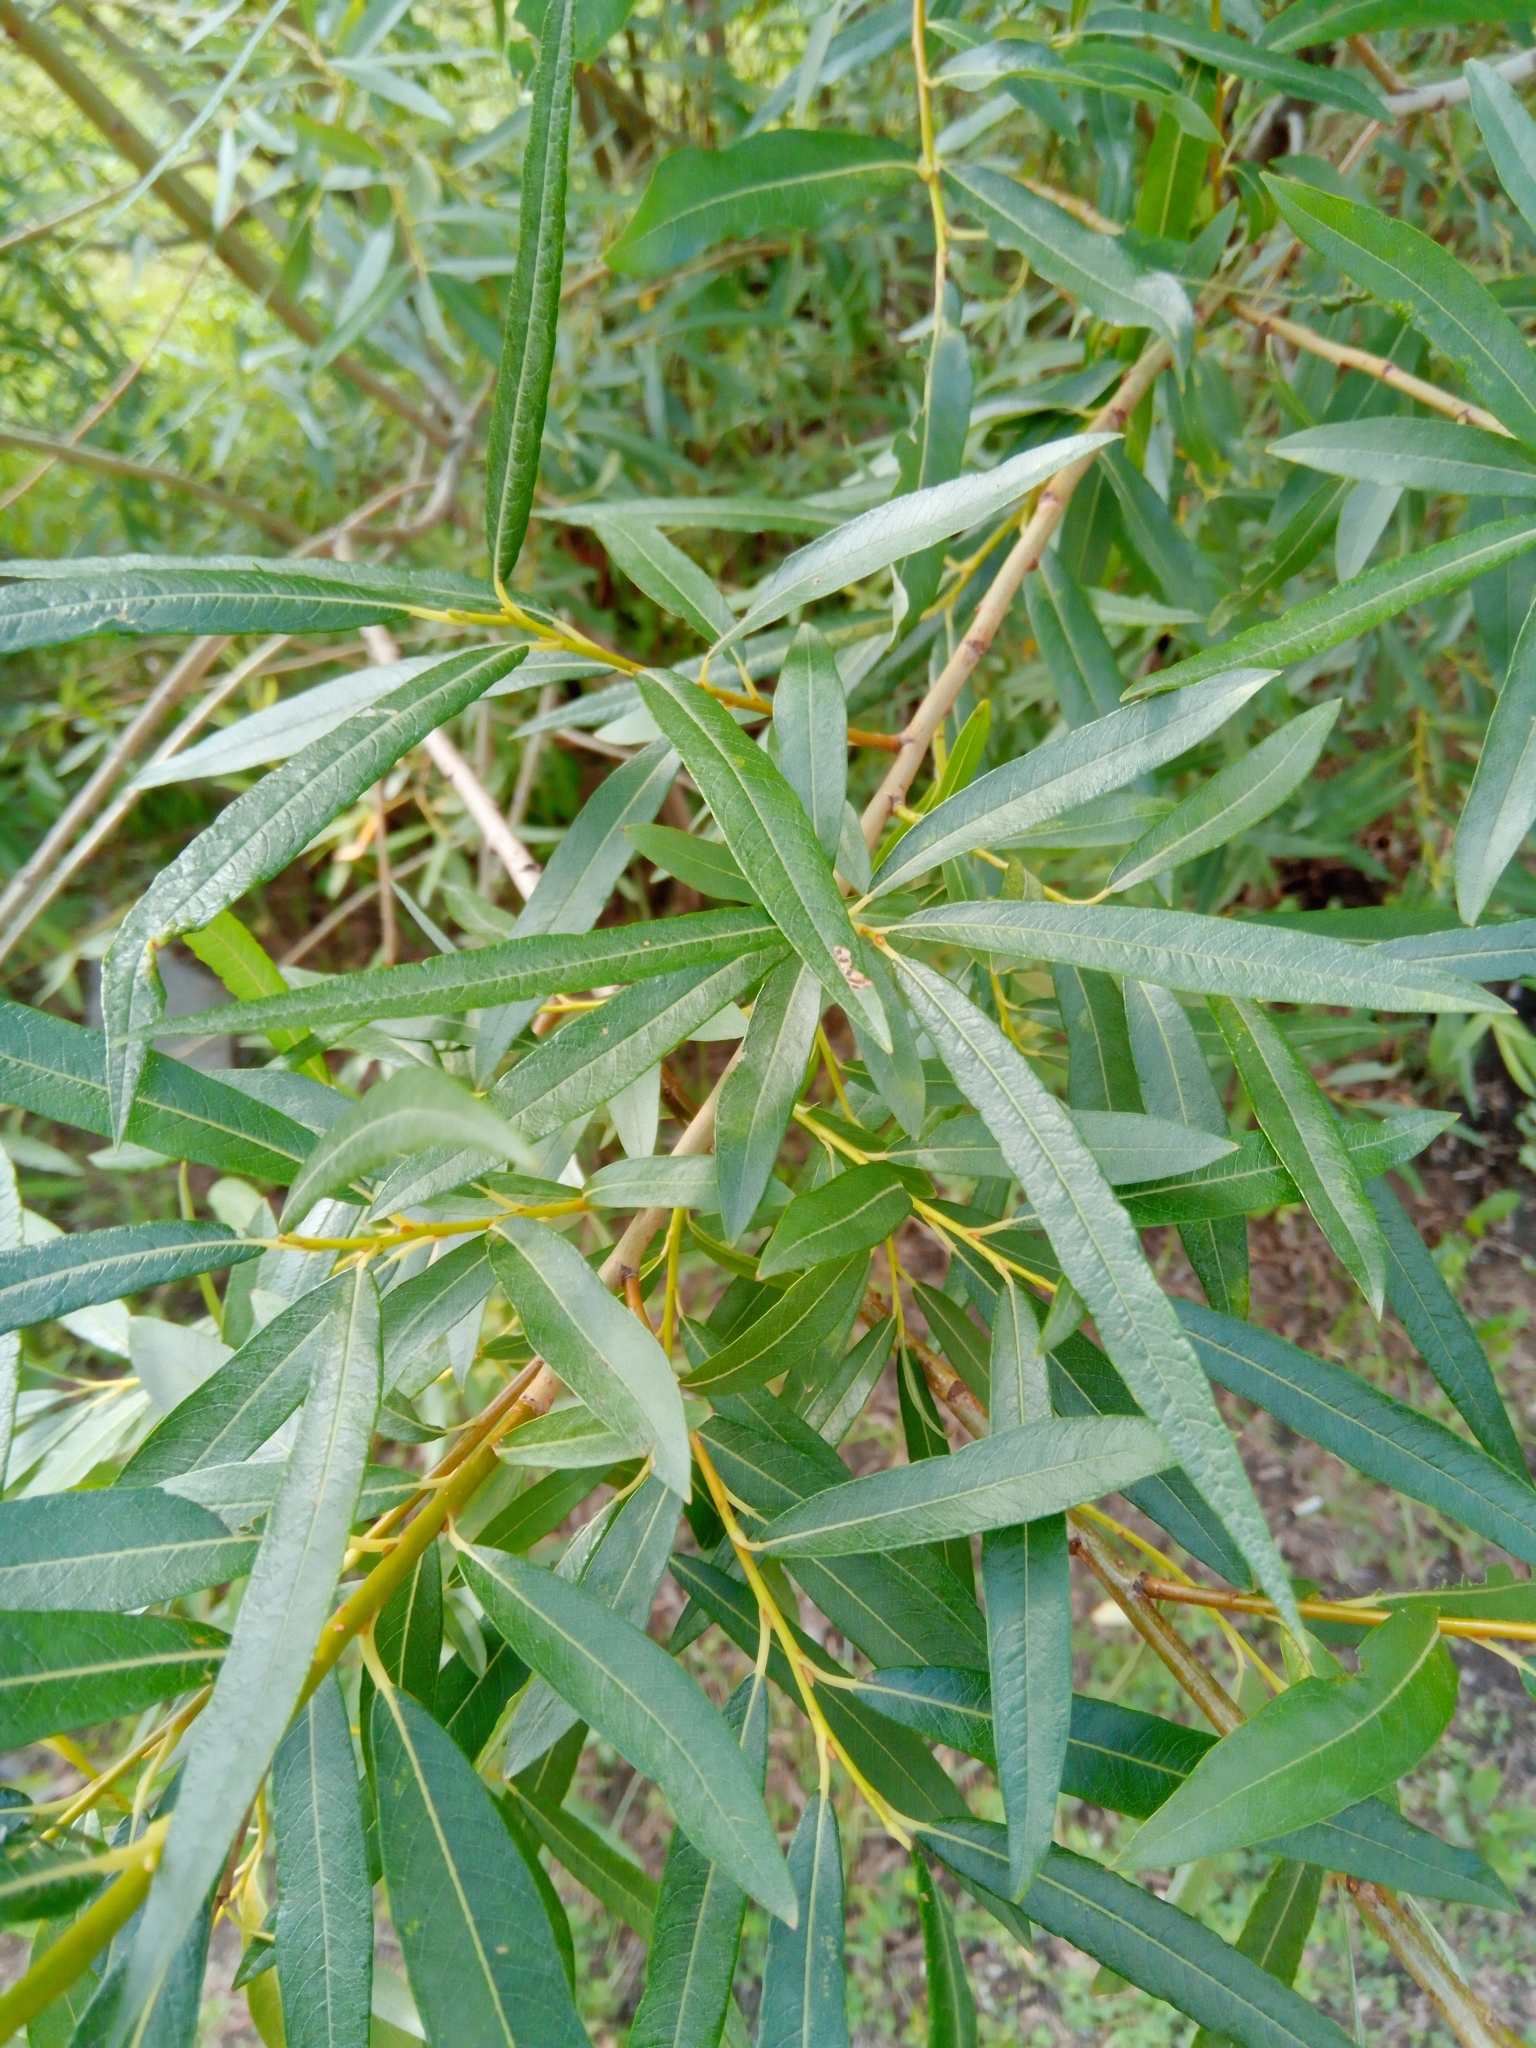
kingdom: Plantae
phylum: Tracheophyta
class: Magnoliopsida
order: Malpighiales
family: Salicaceae
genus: Salix
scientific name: Salix viminalis
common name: Osier
